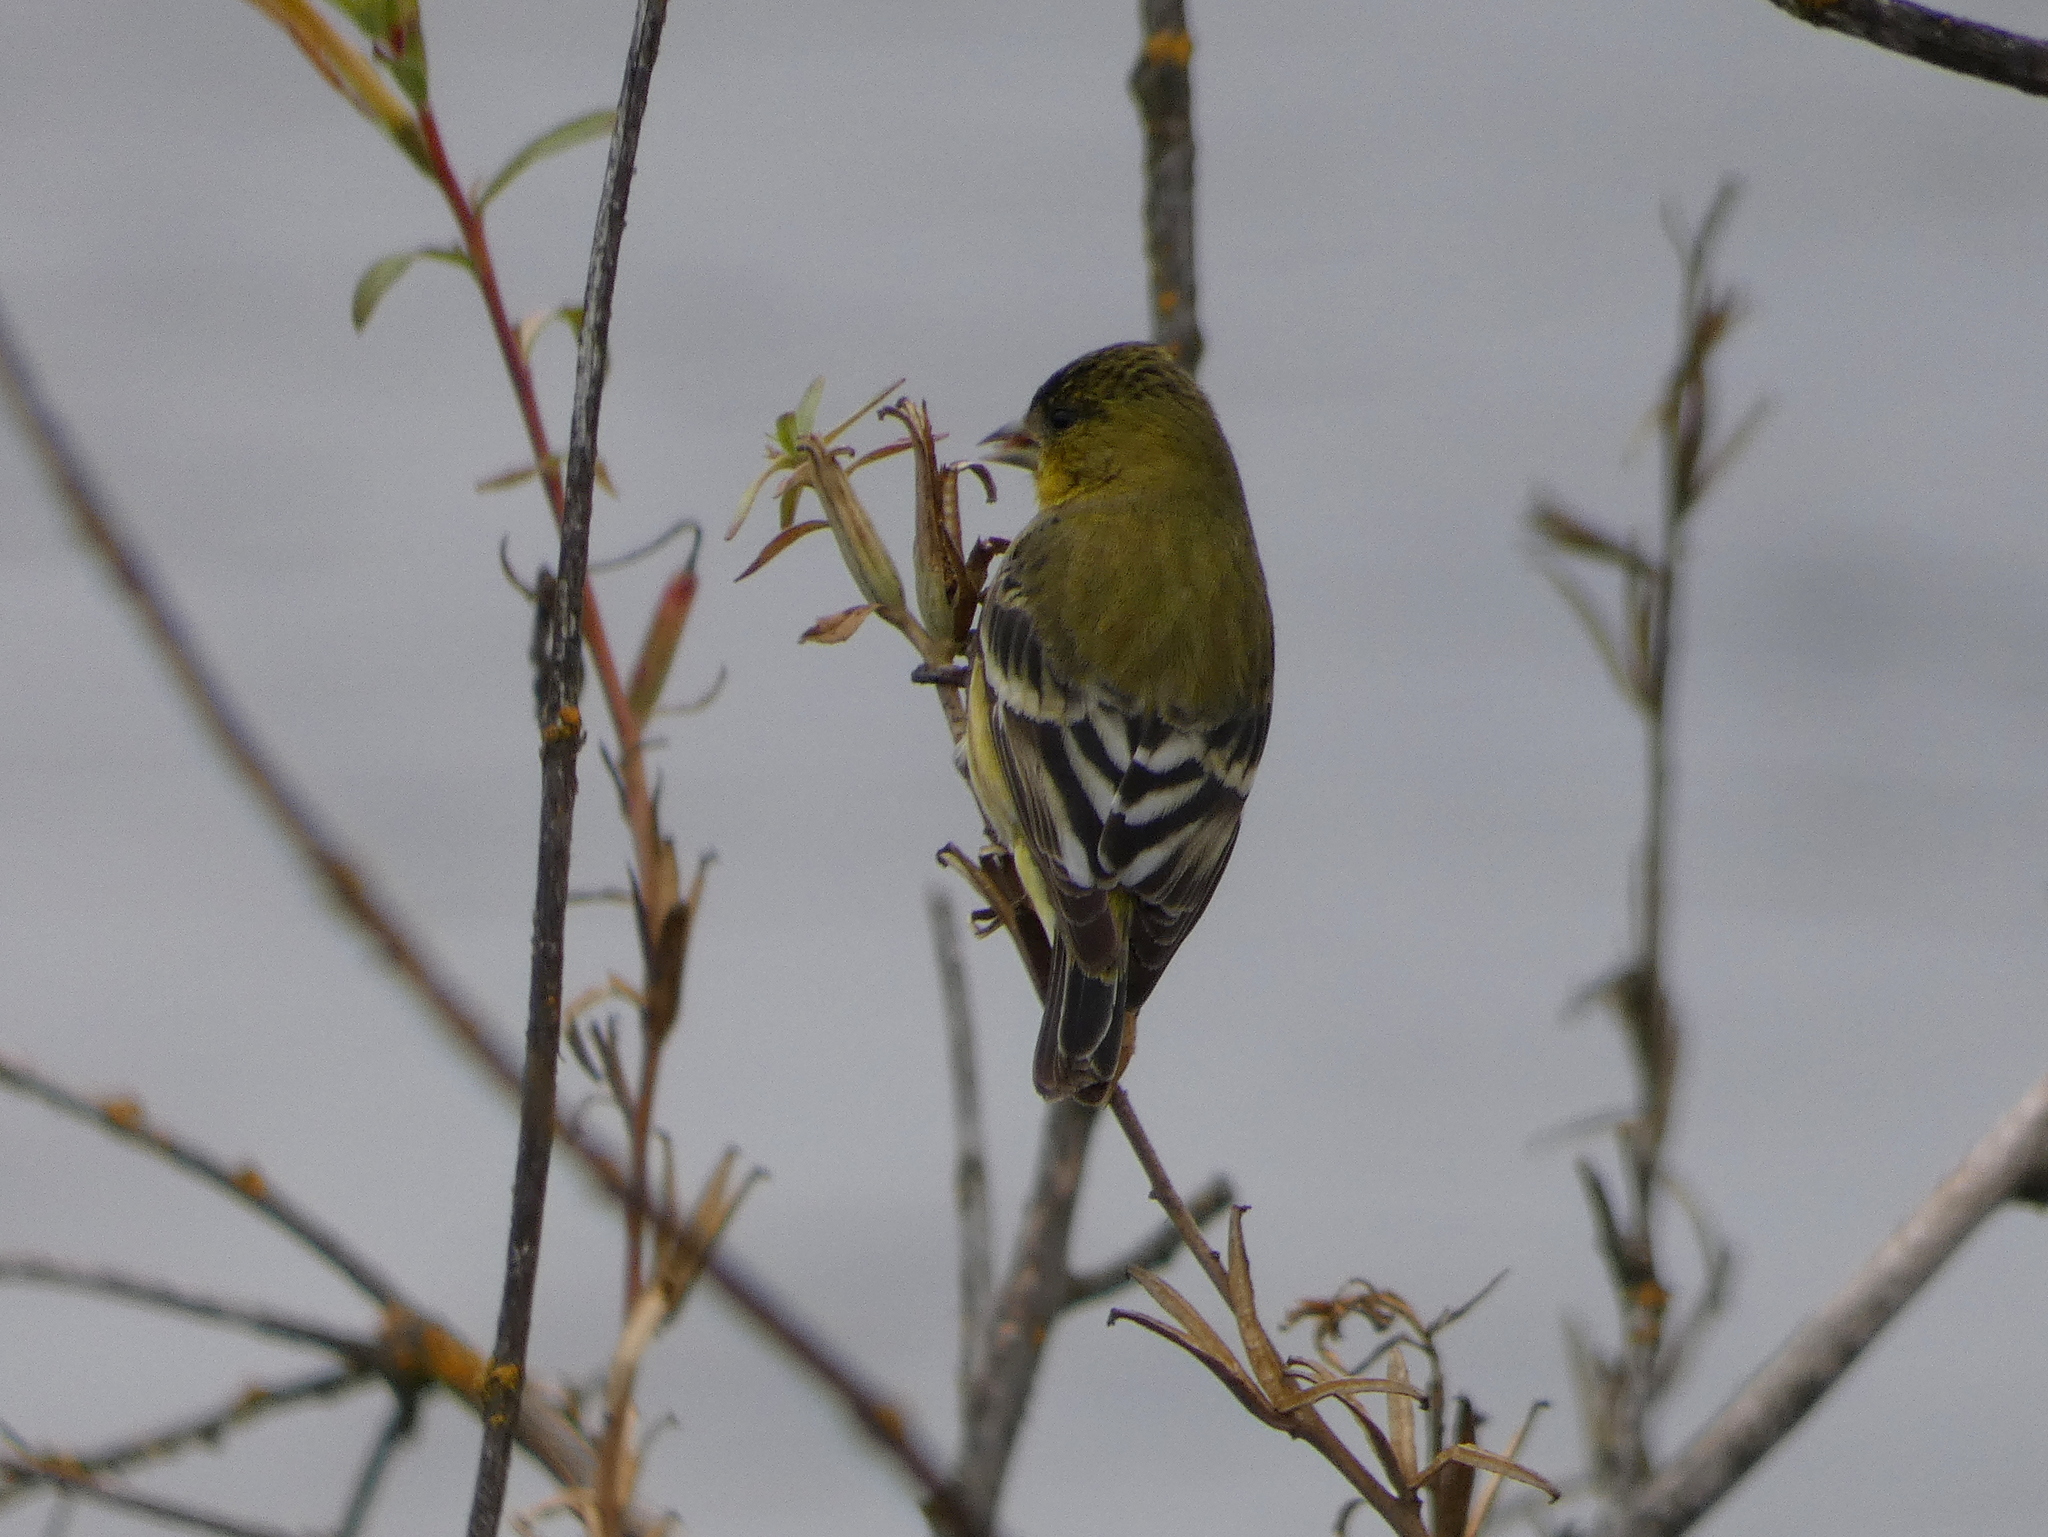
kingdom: Animalia
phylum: Chordata
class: Aves
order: Passeriformes
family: Fringillidae
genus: Spinus
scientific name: Spinus psaltria
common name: Lesser goldfinch
